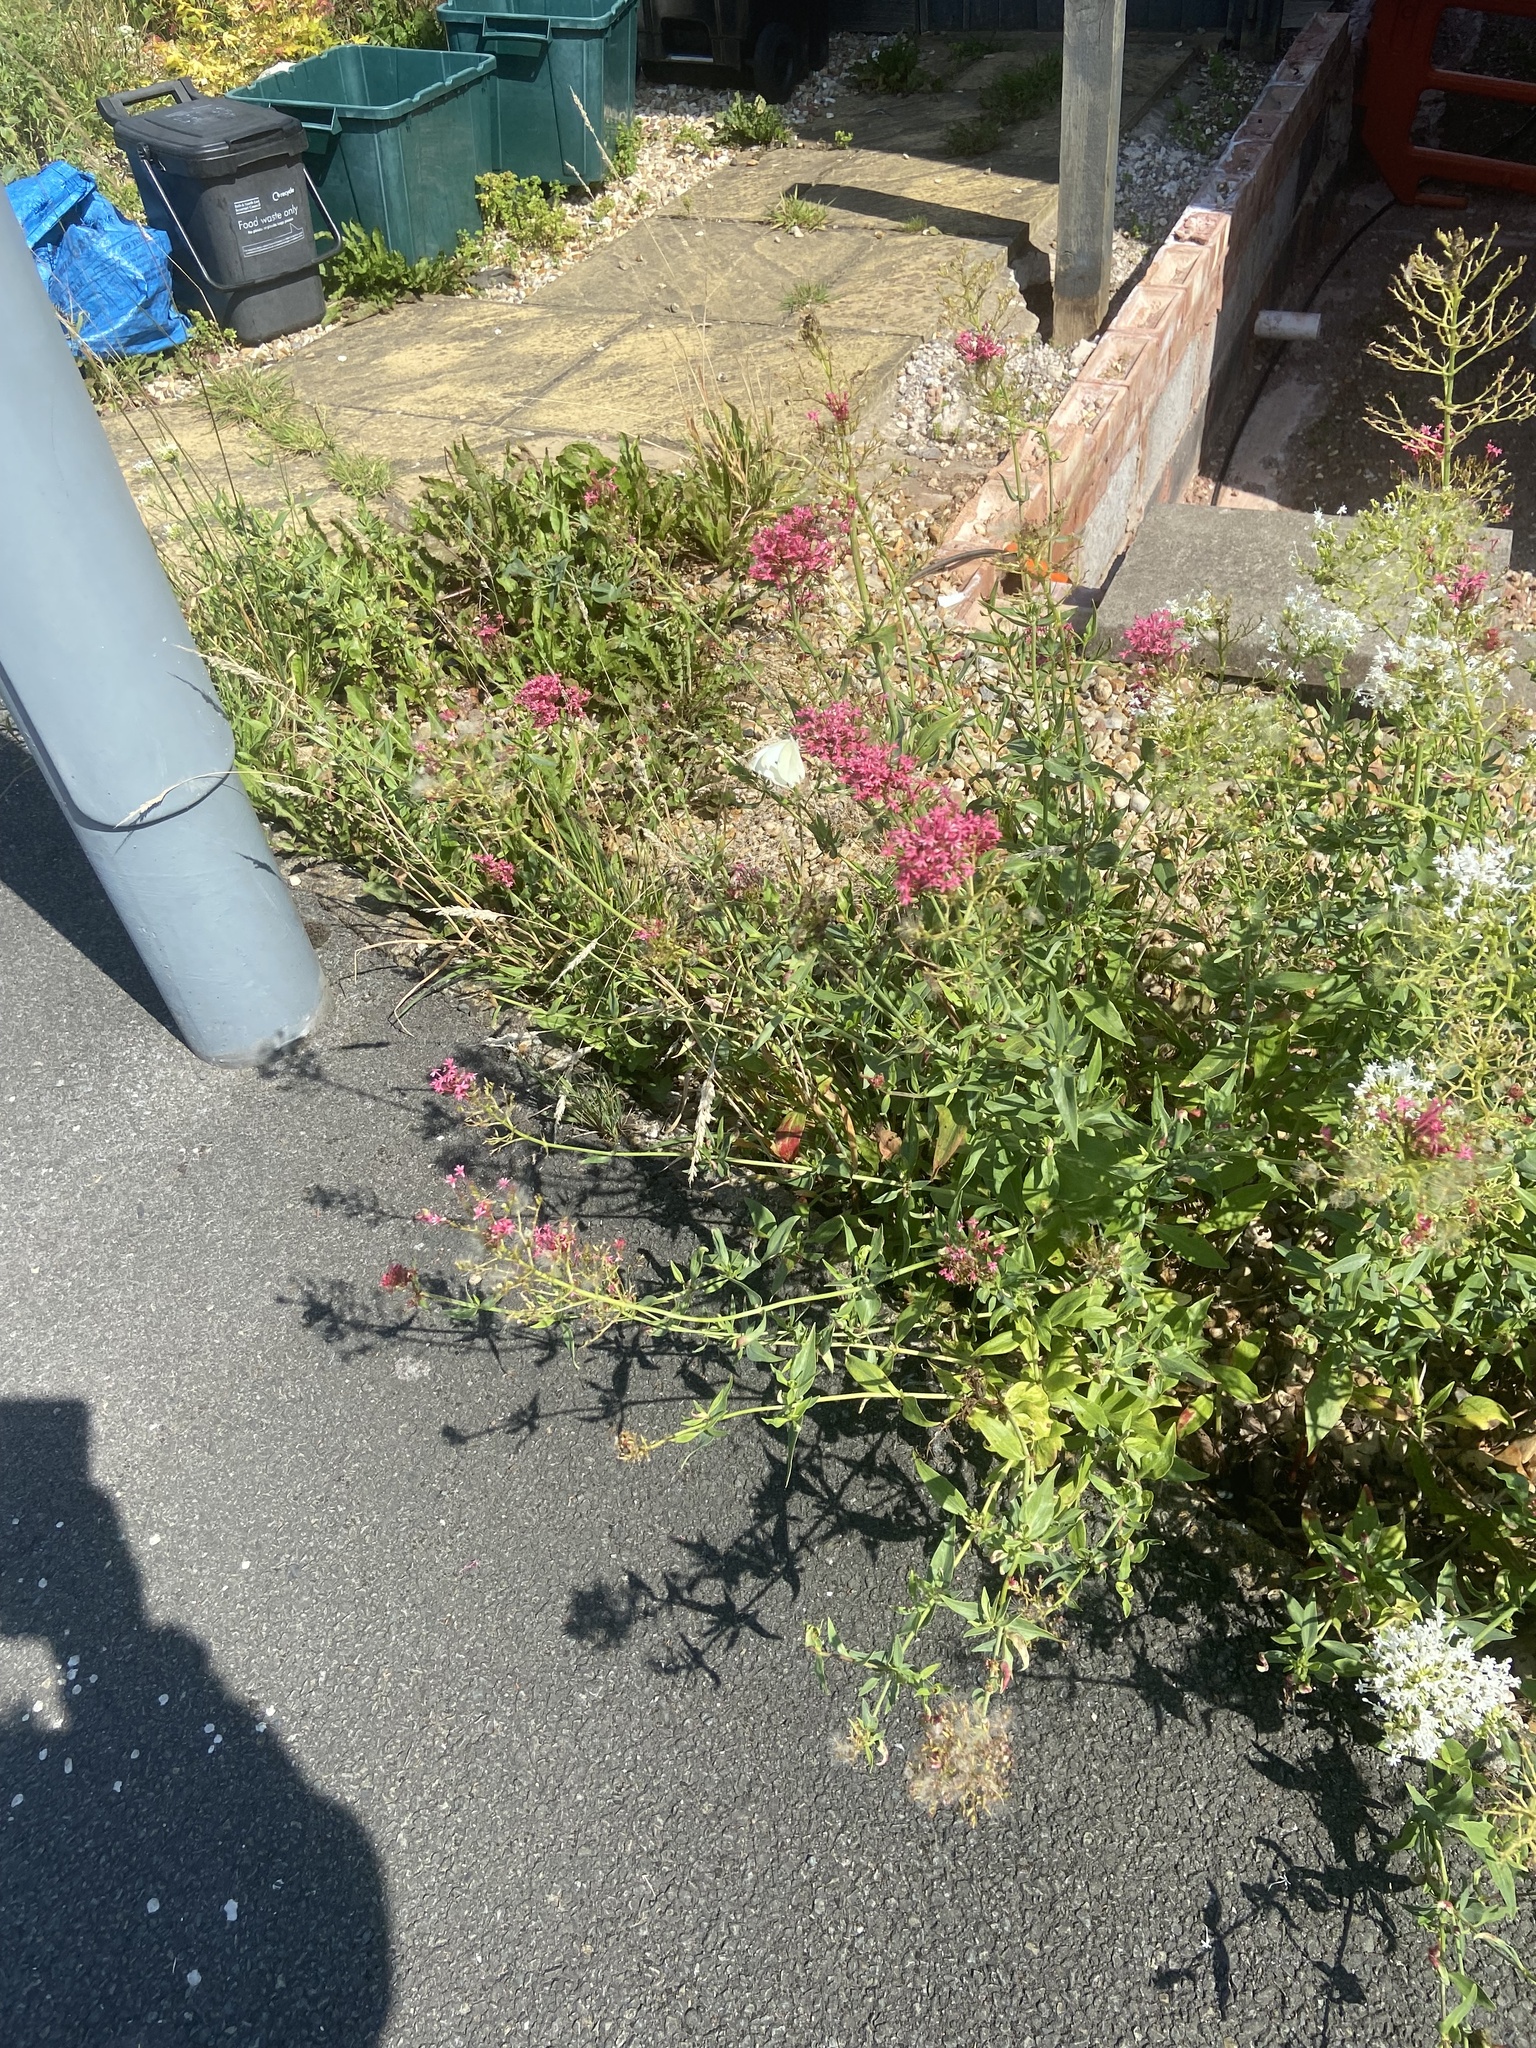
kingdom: Plantae
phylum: Tracheophyta
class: Magnoliopsida
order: Dipsacales
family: Caprifoliaceae
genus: Centranthus
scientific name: Centranthus ruber
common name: Red valerian
